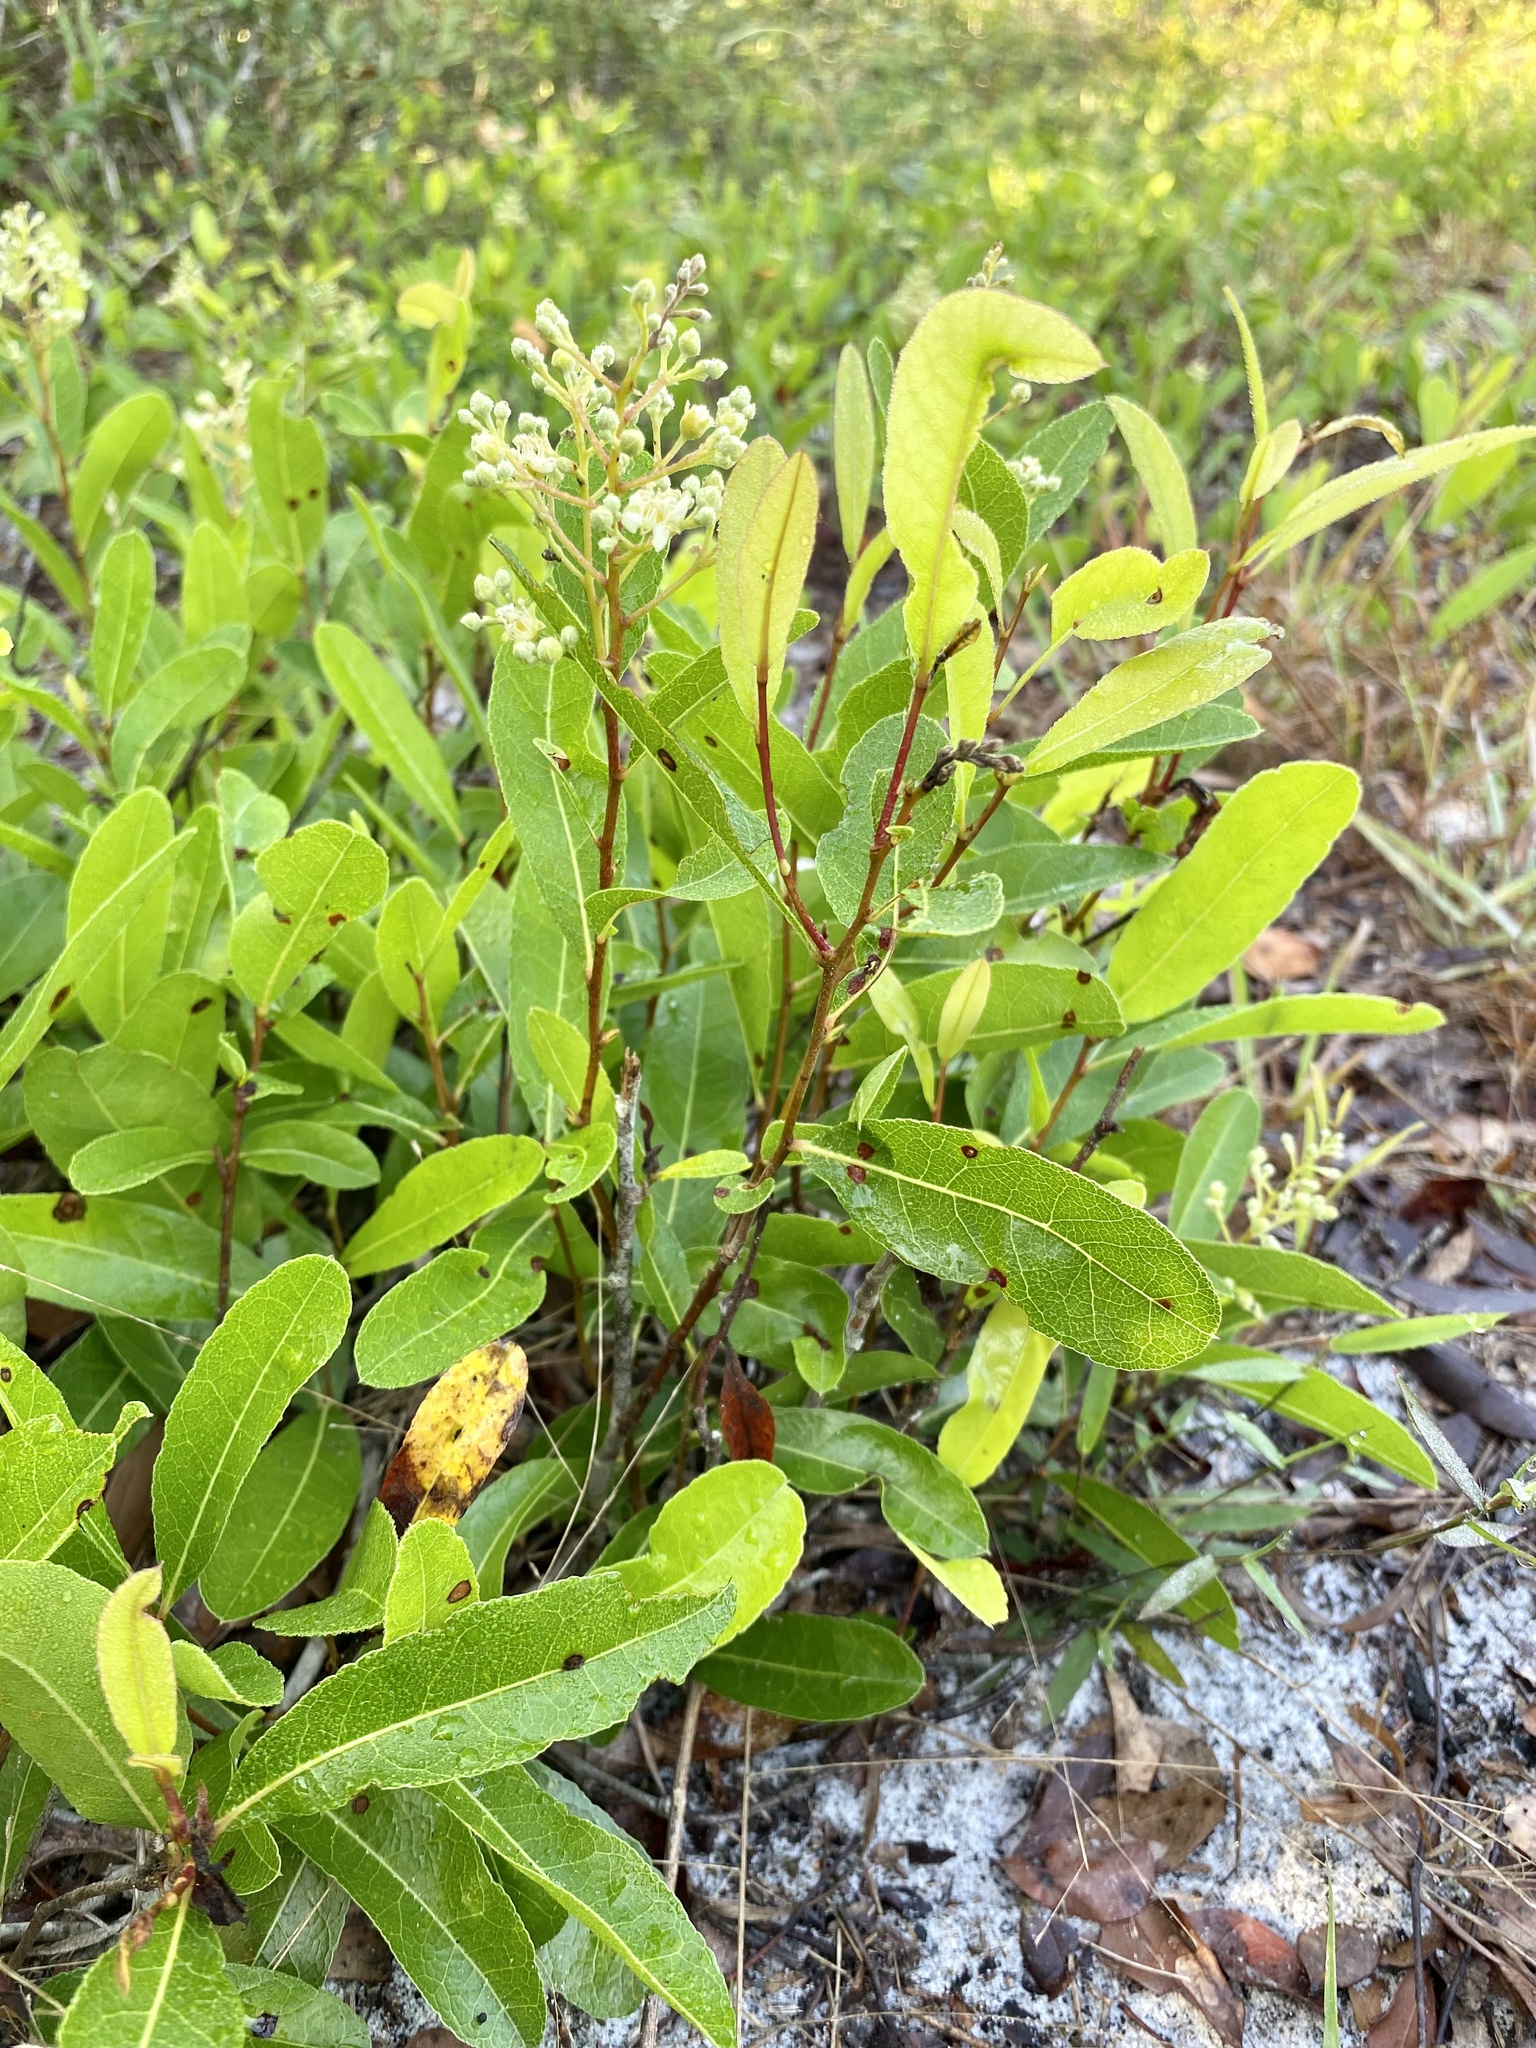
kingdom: Plantae
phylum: Tracheophyta
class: Magnoliopsida
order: Malpighiales
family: Chrysobalanaceae
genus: Geobalanus
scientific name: Geobalanus oblongifolius
